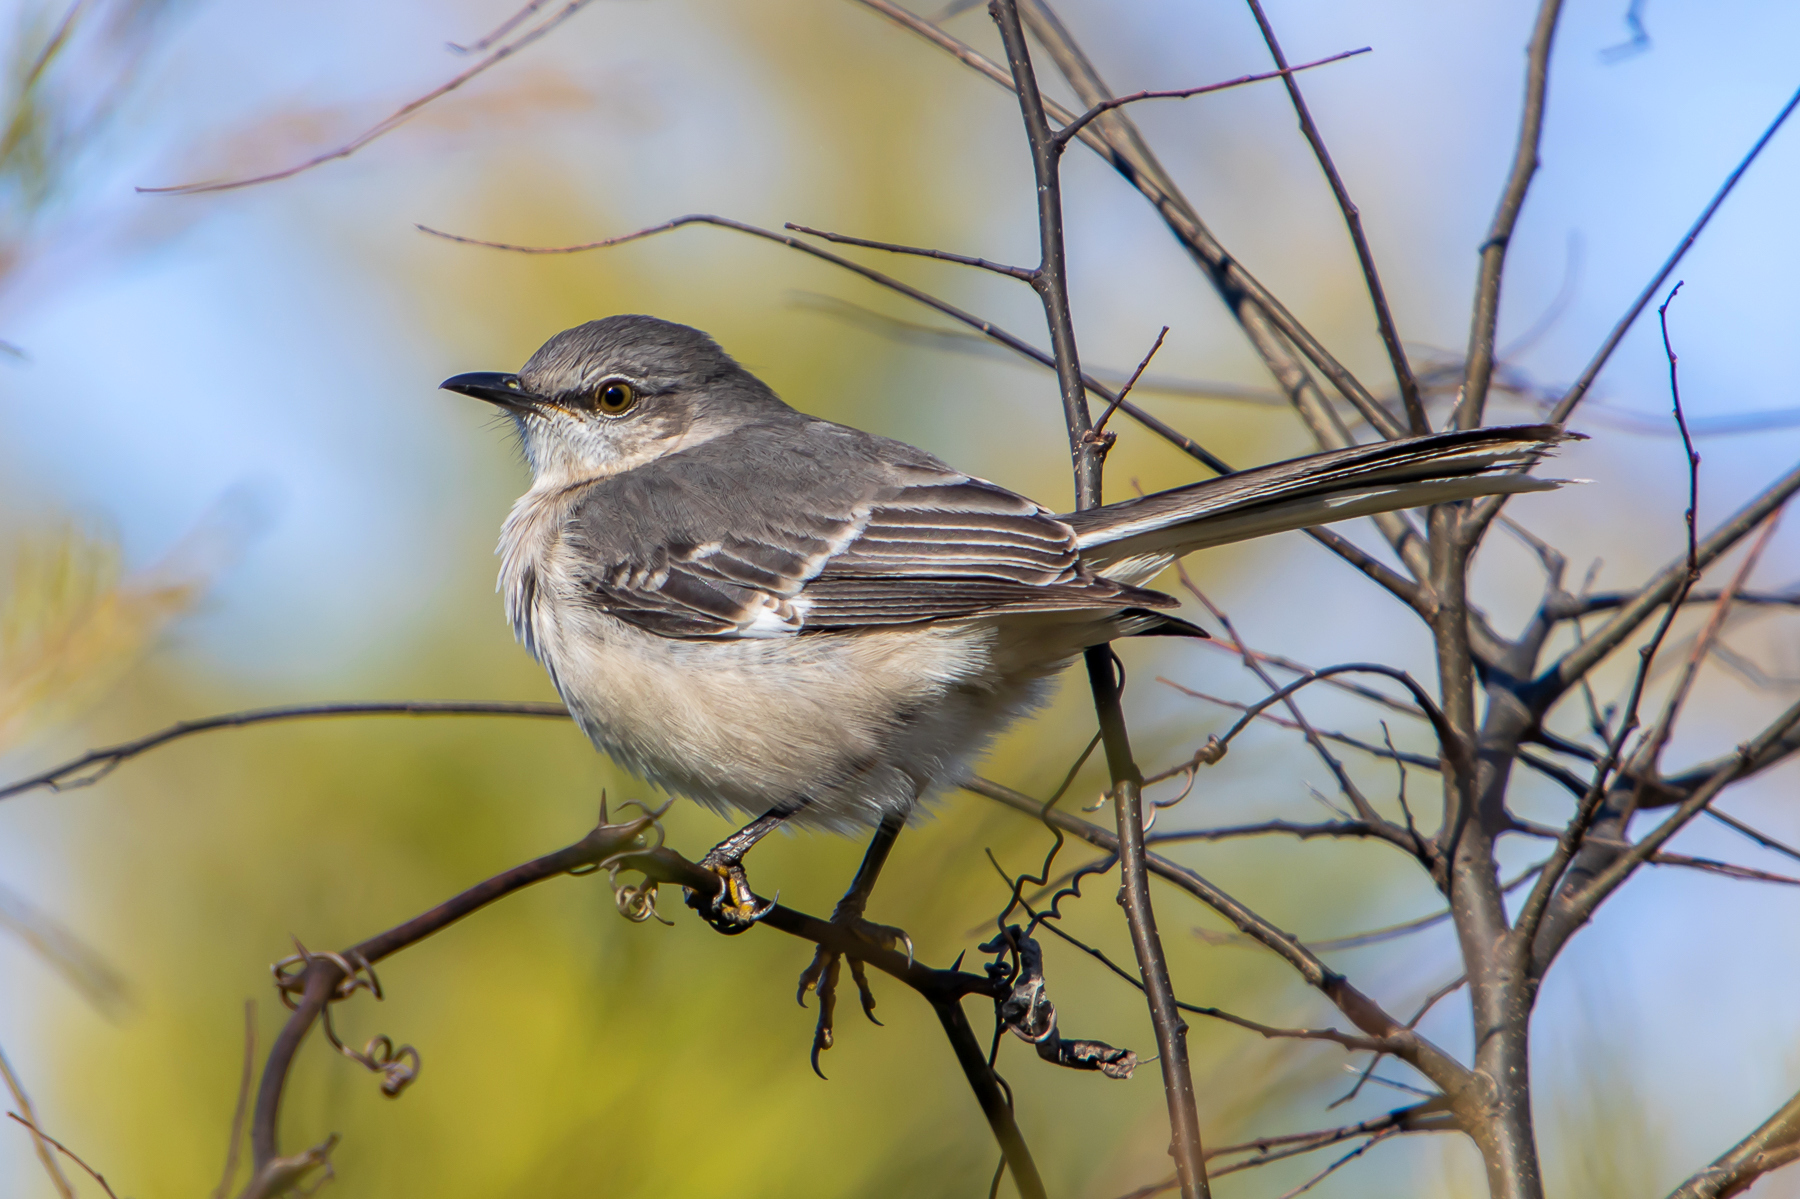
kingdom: Animalia
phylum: Chordata
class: Aves
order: Passeriformes
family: Mimidae
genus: Mimus
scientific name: Mimus polyglottos
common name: Northern mockingbird
